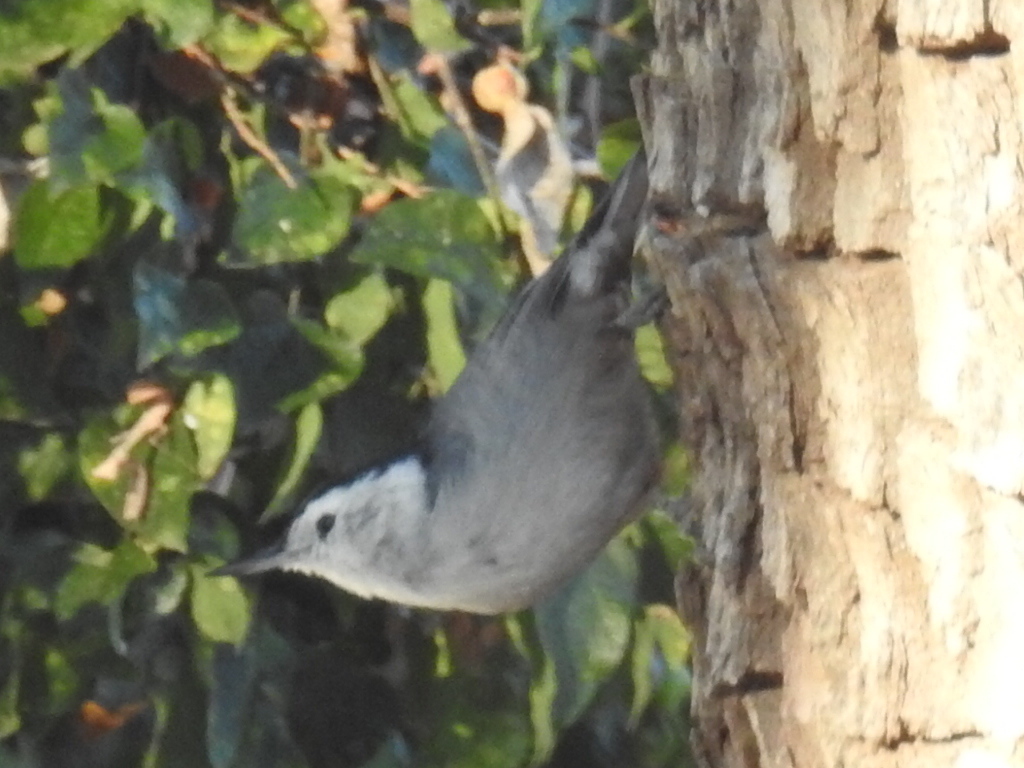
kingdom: Animalia
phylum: Chordata
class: Aves
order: Passeriformes
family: Sittidae
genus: Sitta
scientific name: Sitta carolinensis
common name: White-breasted nuthatch
